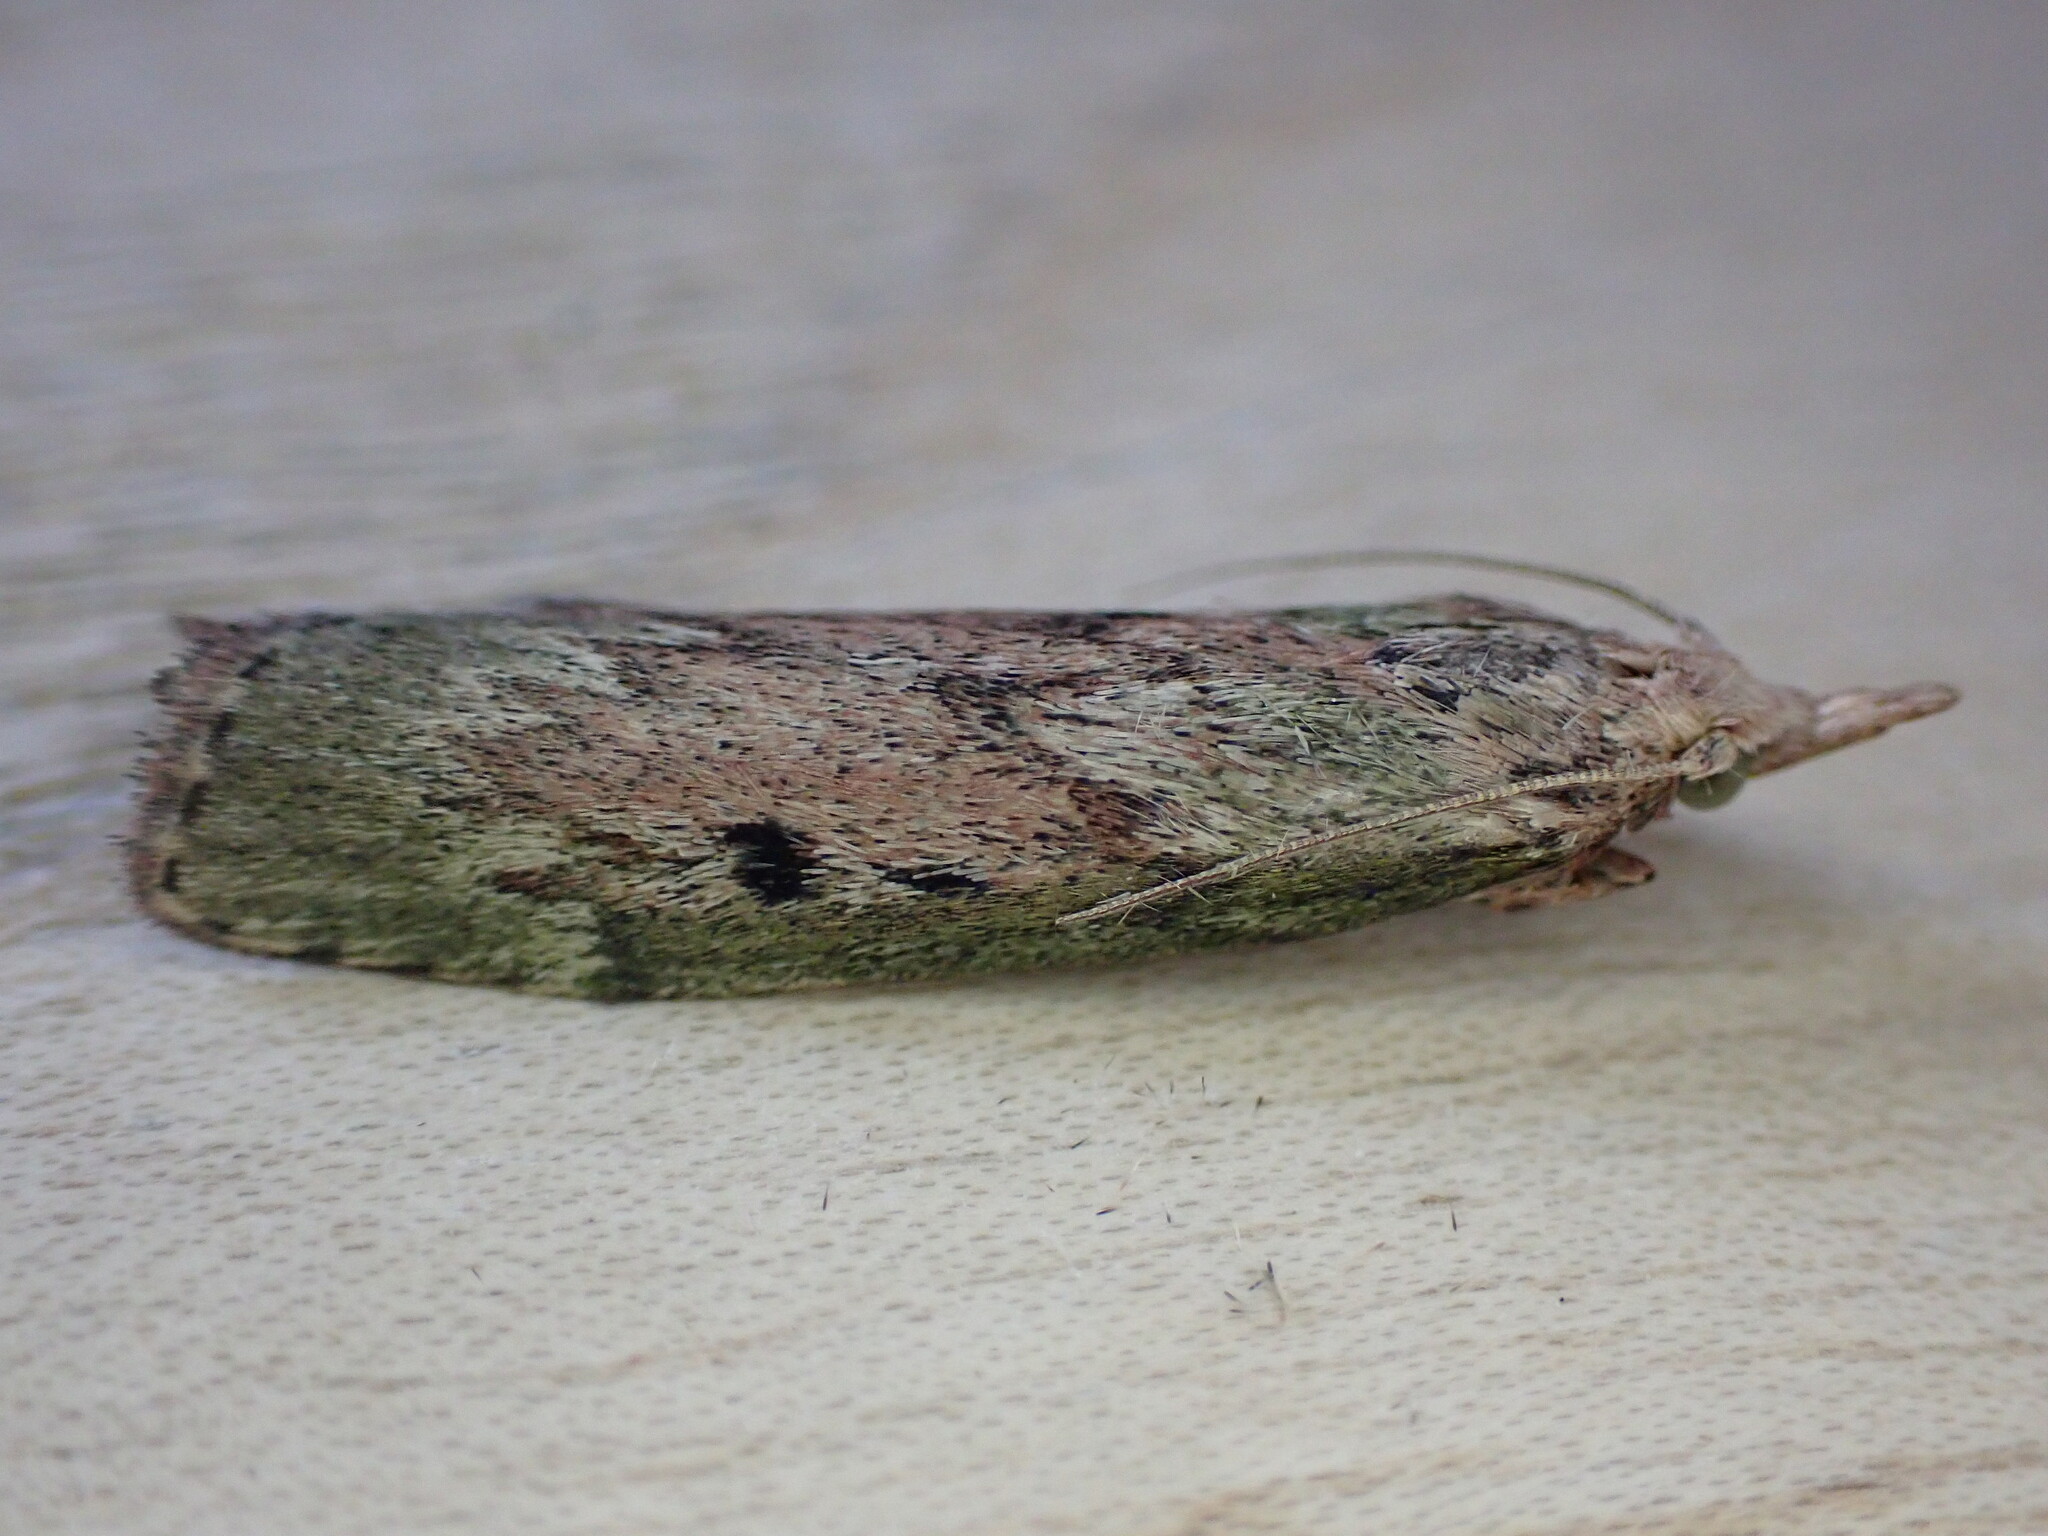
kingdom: Animalia
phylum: Arthropoda
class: Insecta
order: Lepidoptera
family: Pyralidae
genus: Aphomia
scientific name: Aphomia sociella
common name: Bee moth
